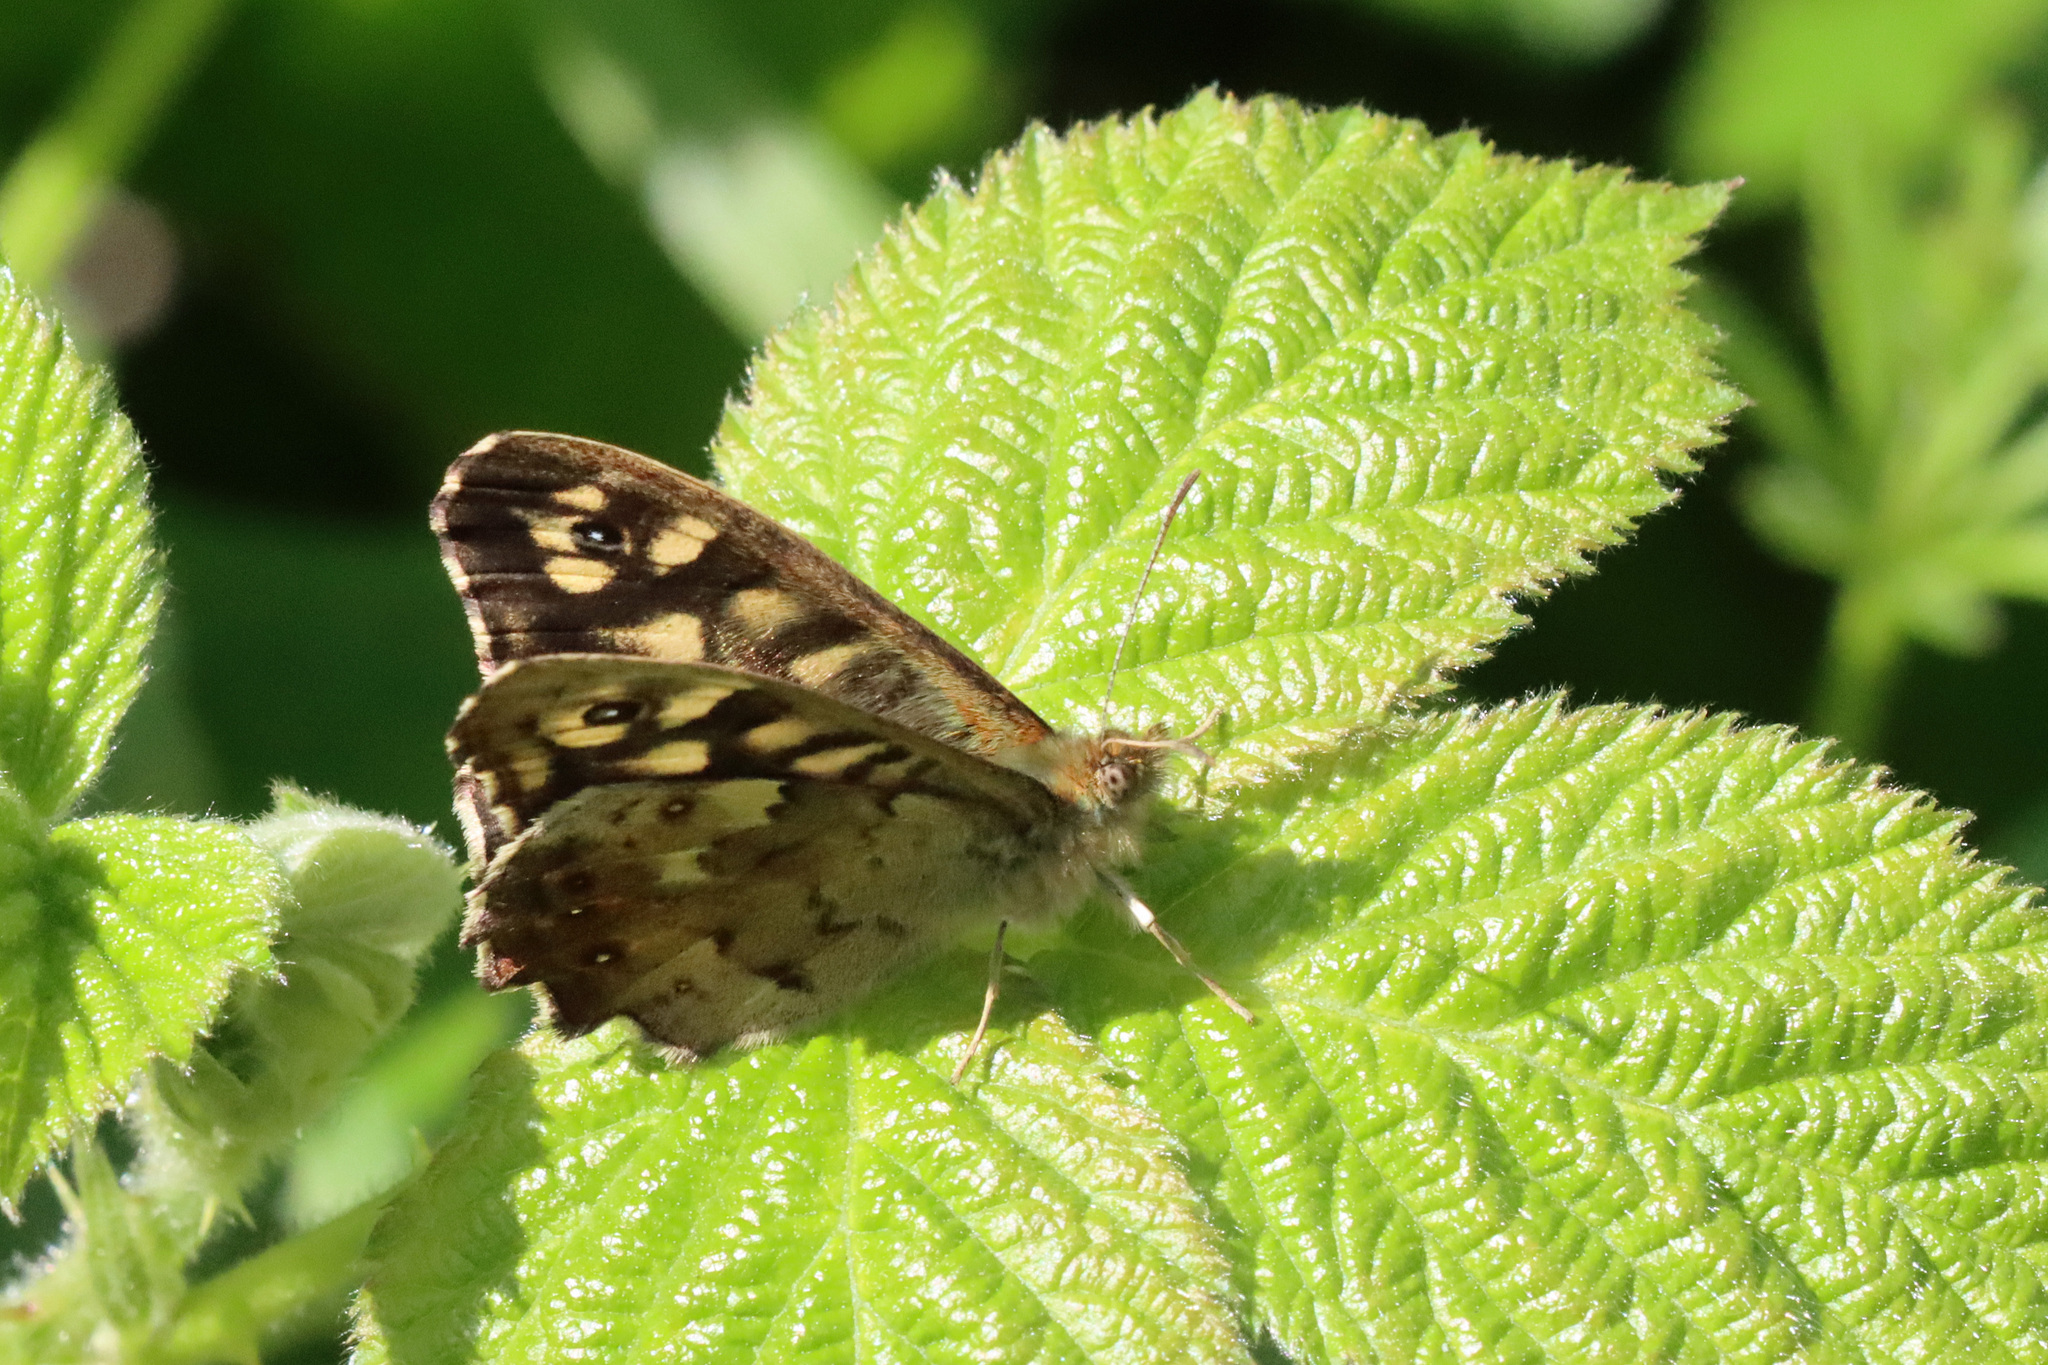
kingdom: Animalia
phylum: Arthropoda
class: Insecta
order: Lepidoptera
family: Nymphalidae
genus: Pararge
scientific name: Pararge aegeria
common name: Speckled wood
